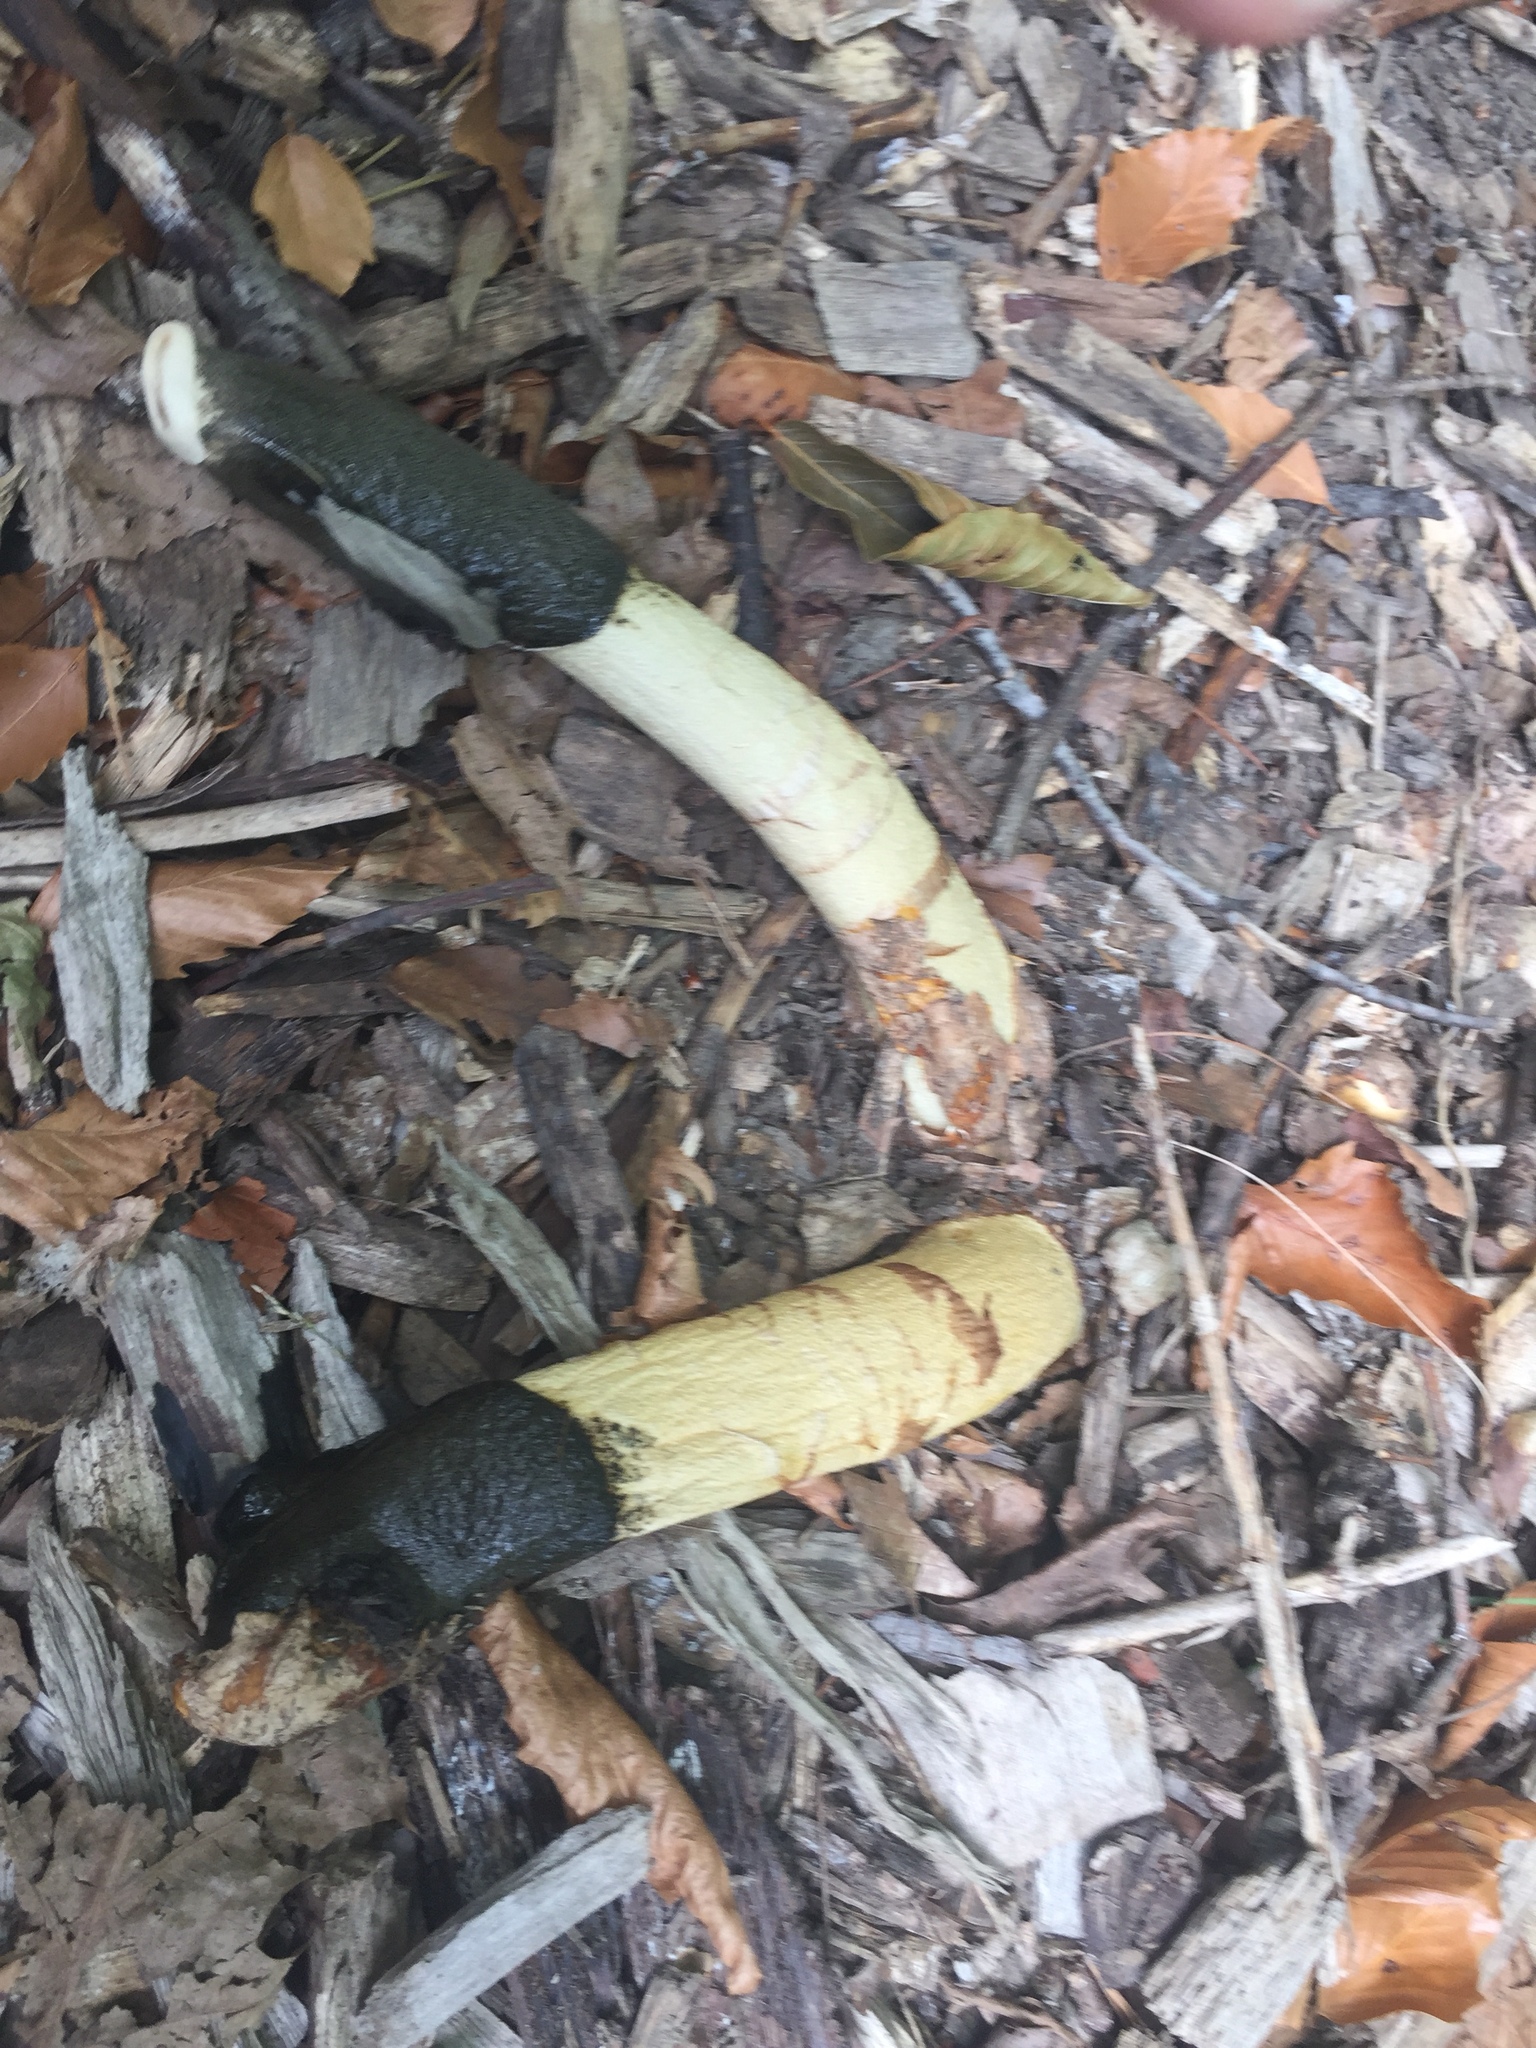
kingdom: Fungi
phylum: Basidiomycota
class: Agaricomycetes
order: Phallales
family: Phallaceae
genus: Phallus
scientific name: Phallus ravenelii
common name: Ravenel's stinkhorn
